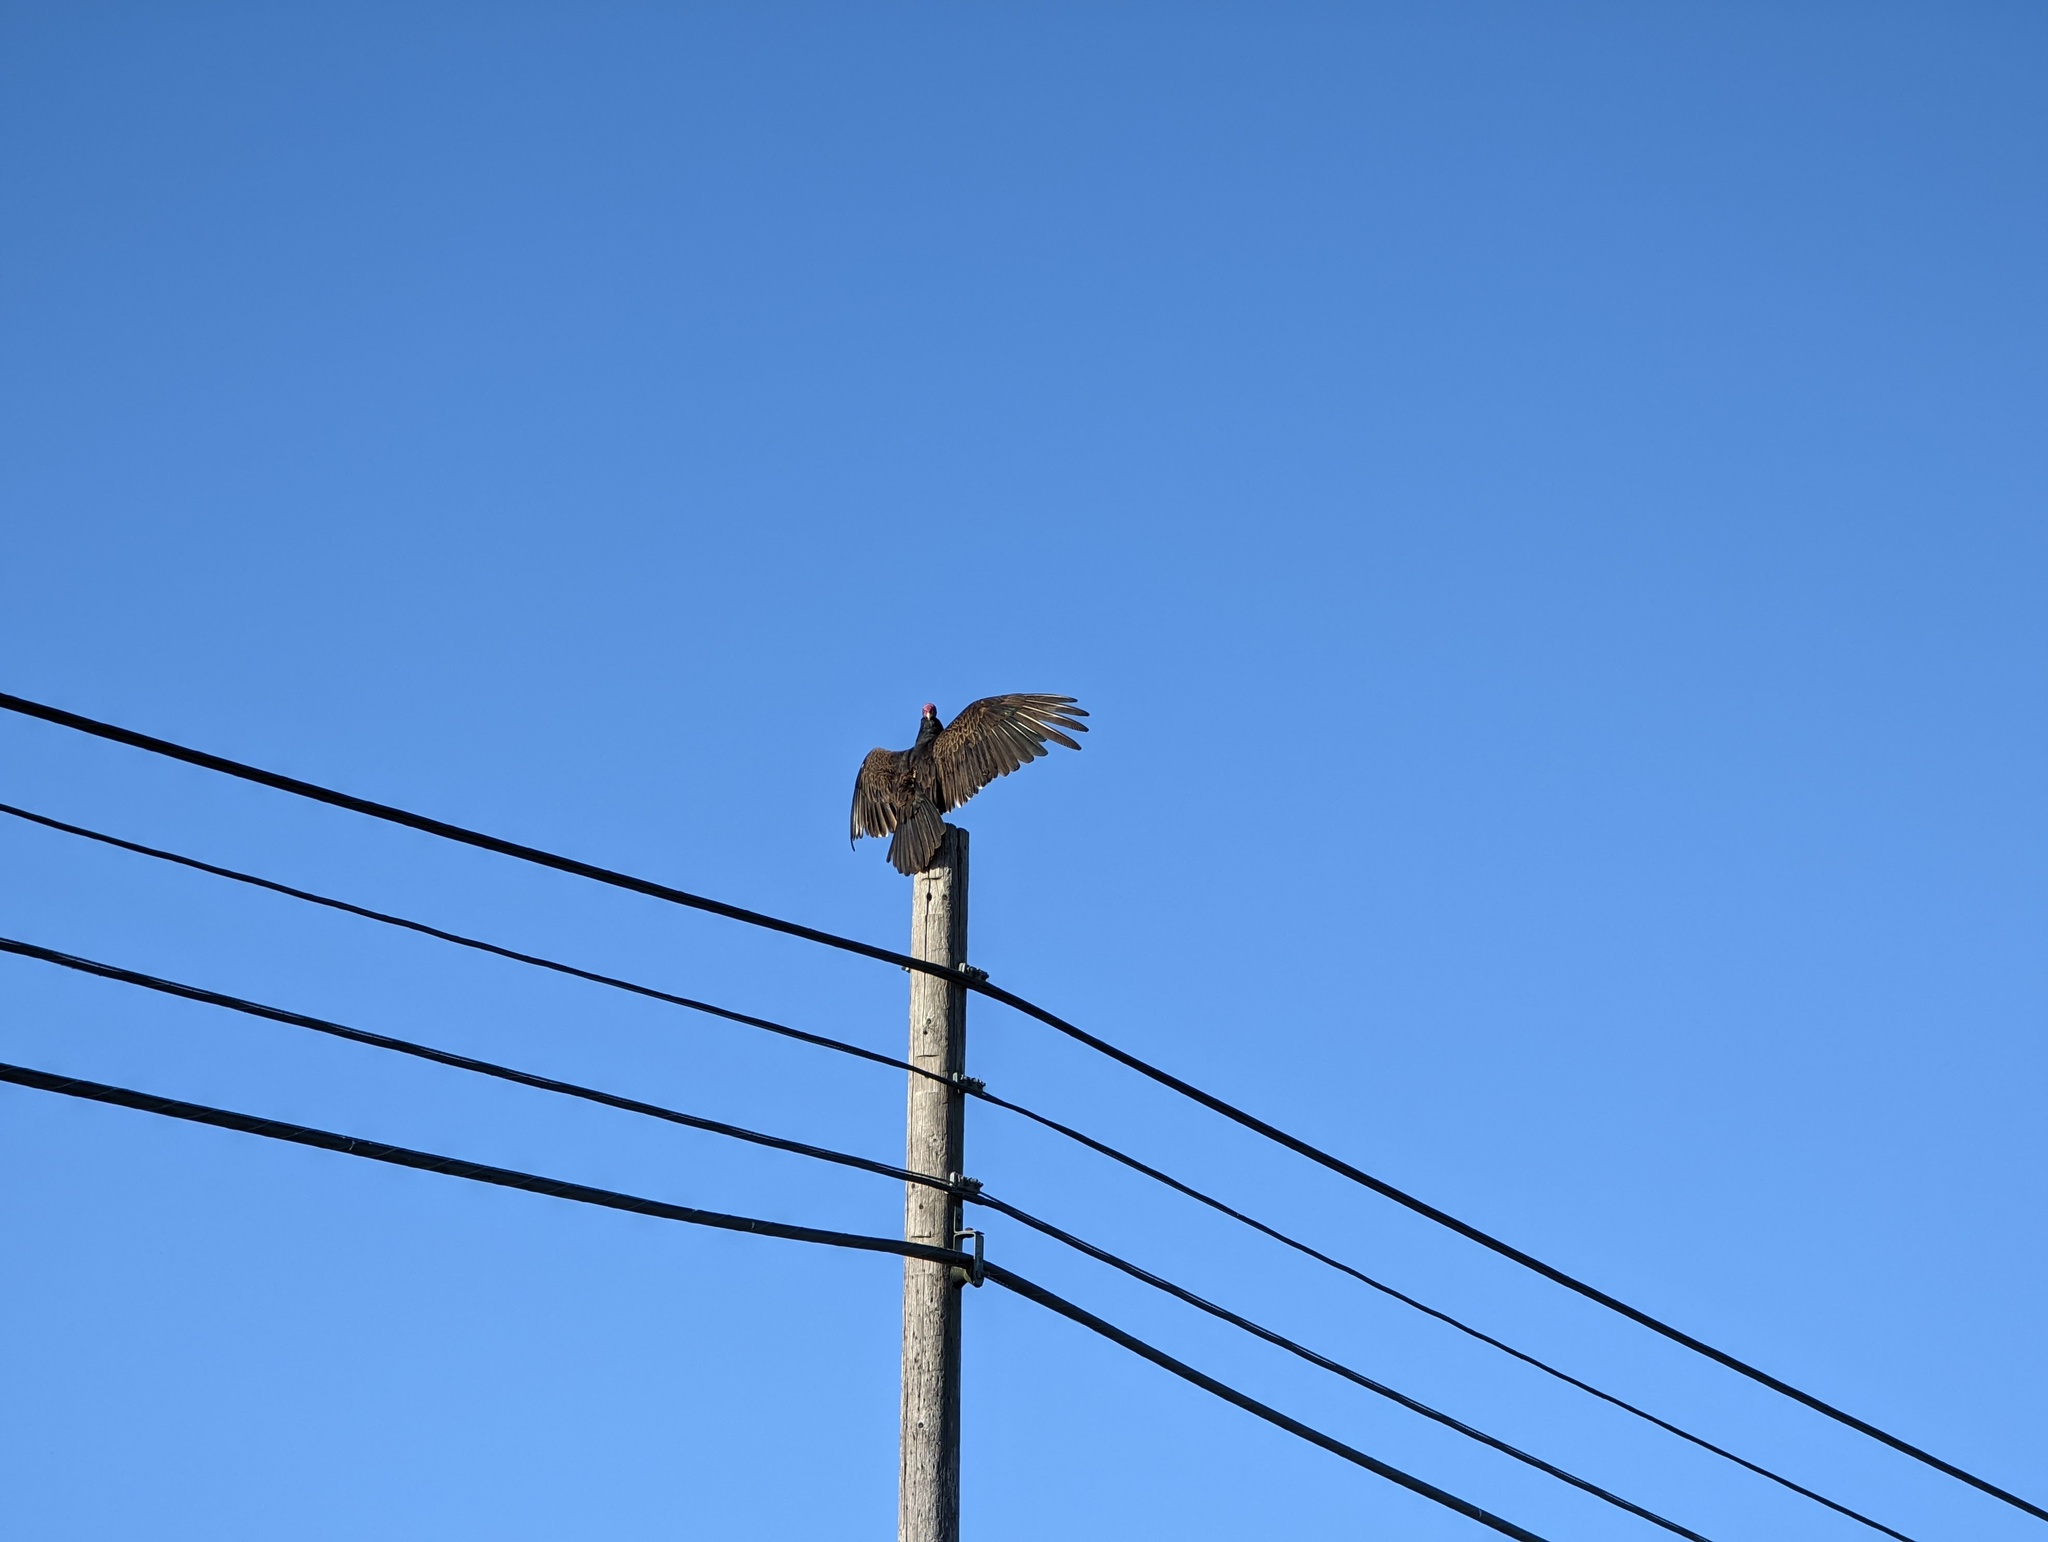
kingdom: Animalia
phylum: Chordata
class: Aves
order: Accipitriformes
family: Cathartidae
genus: Cathartes
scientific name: Cathartes aura
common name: Turkey vulture
